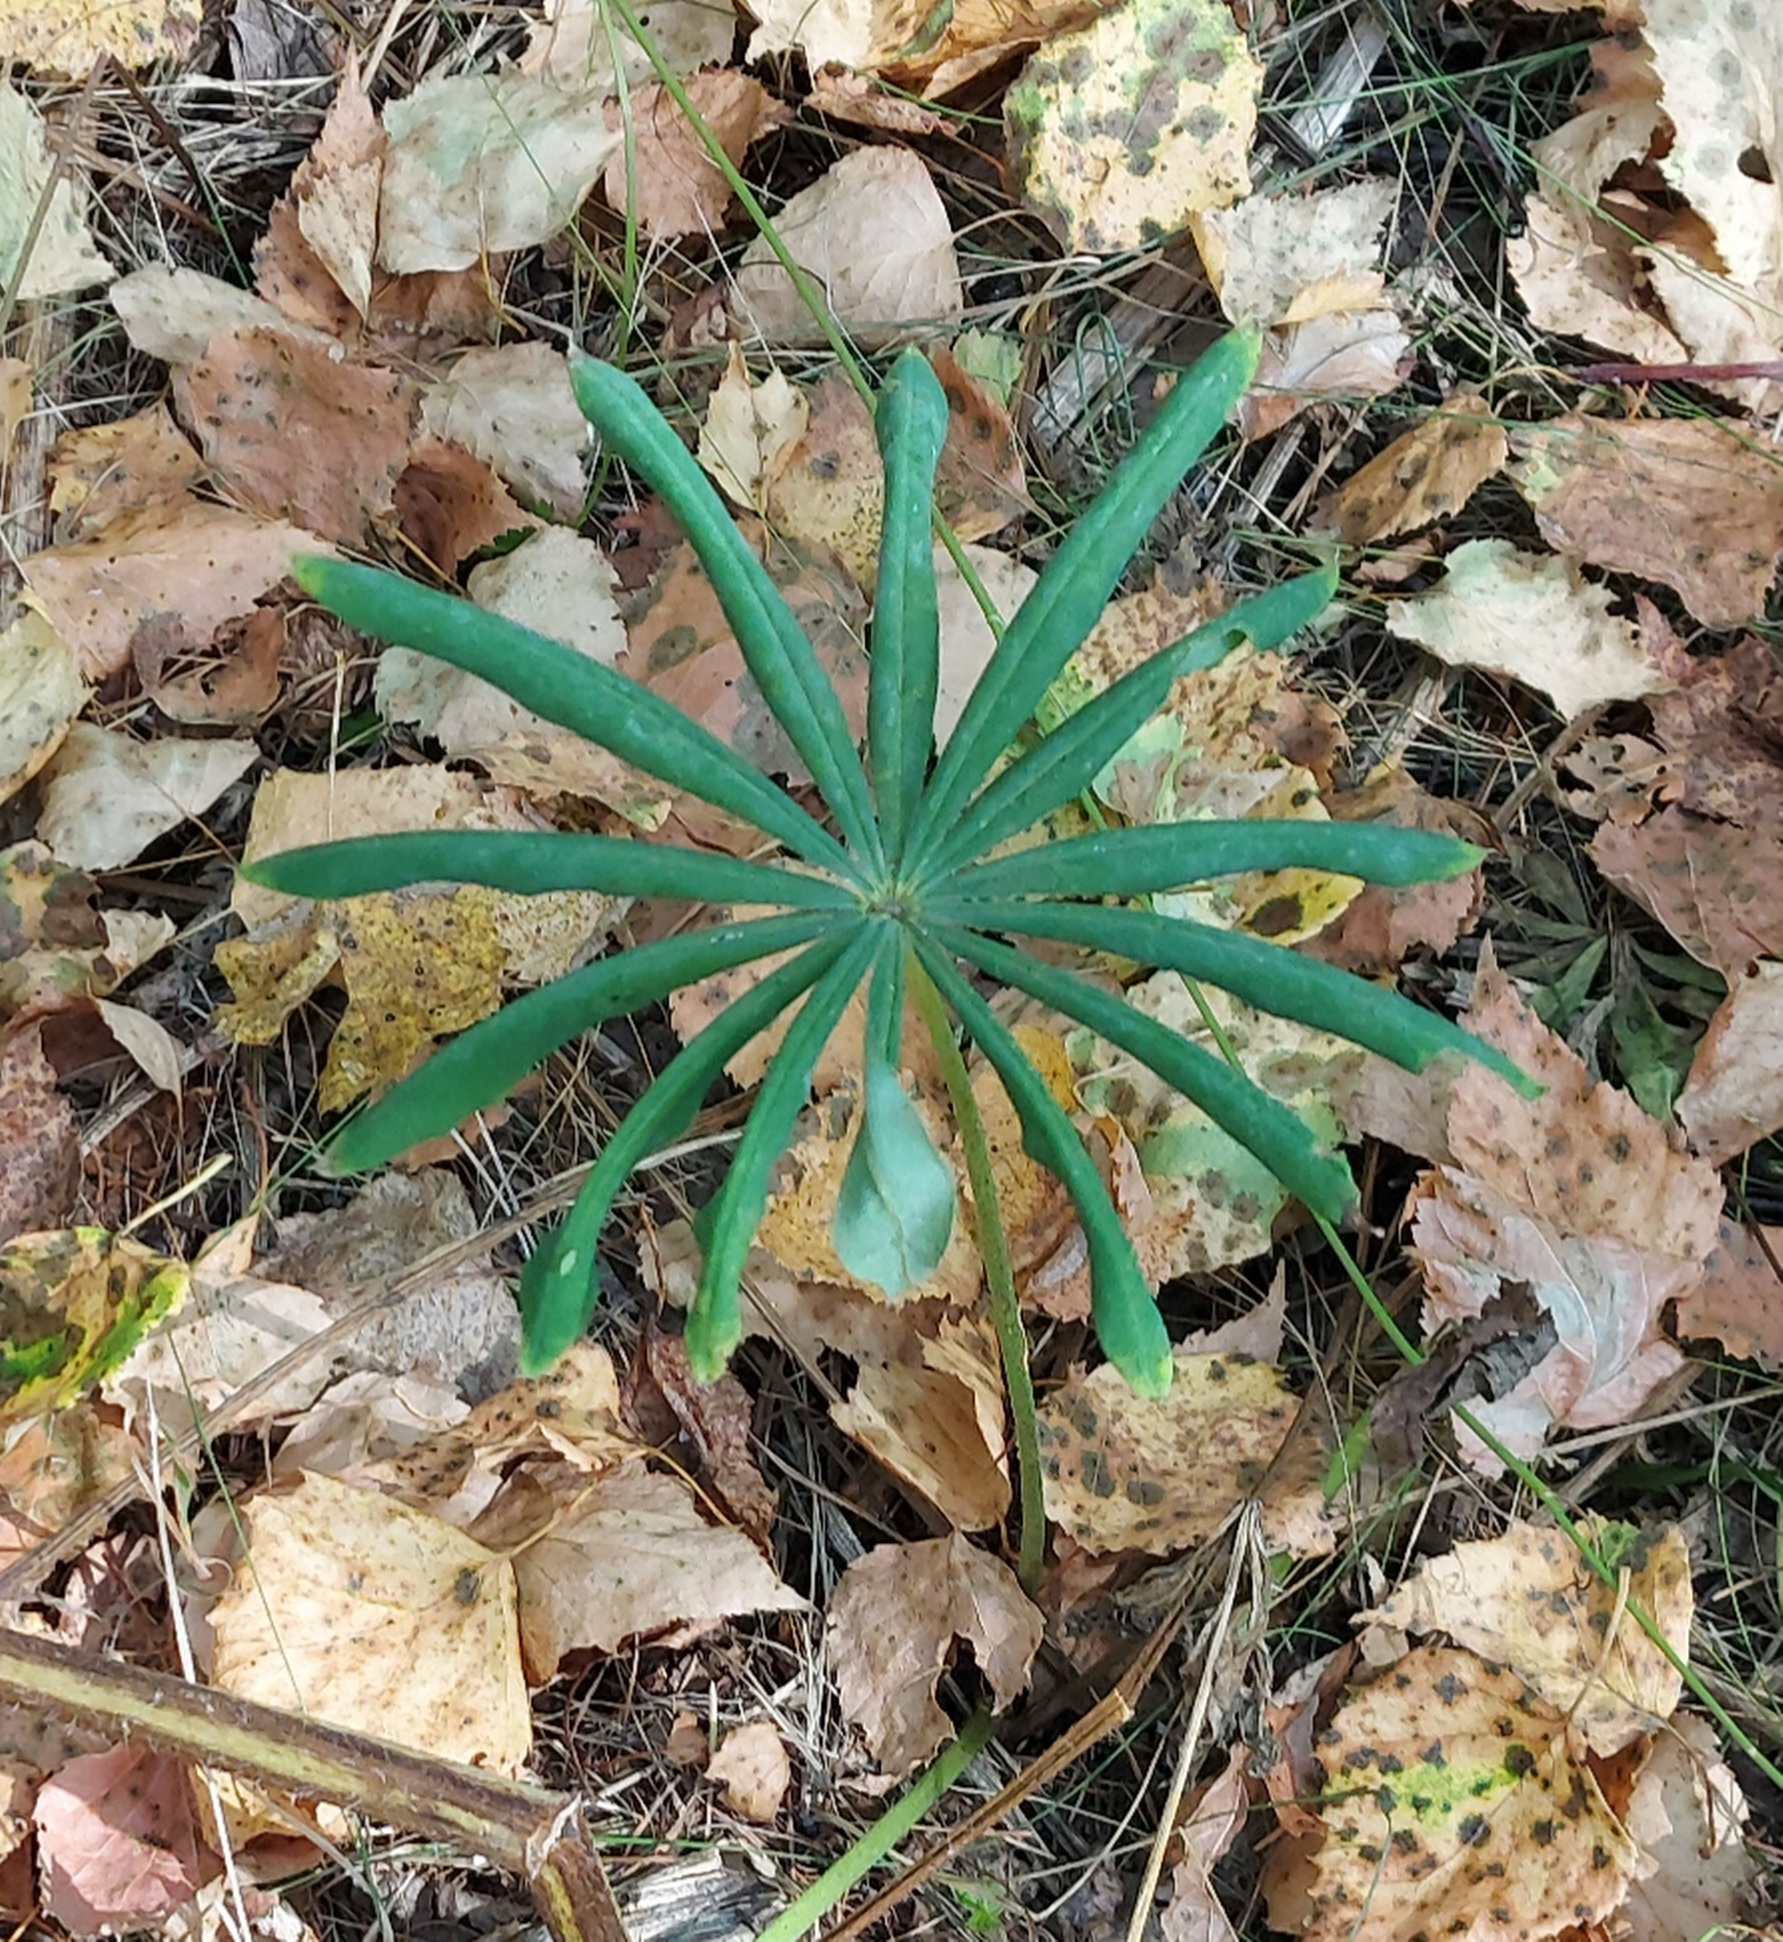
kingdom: Plantae
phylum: Tracheophyta
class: Magnoliopsida
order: Fabales
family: Fabaceae
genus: Lupinus
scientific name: Lupinus polyphyllus
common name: Garden lupin
